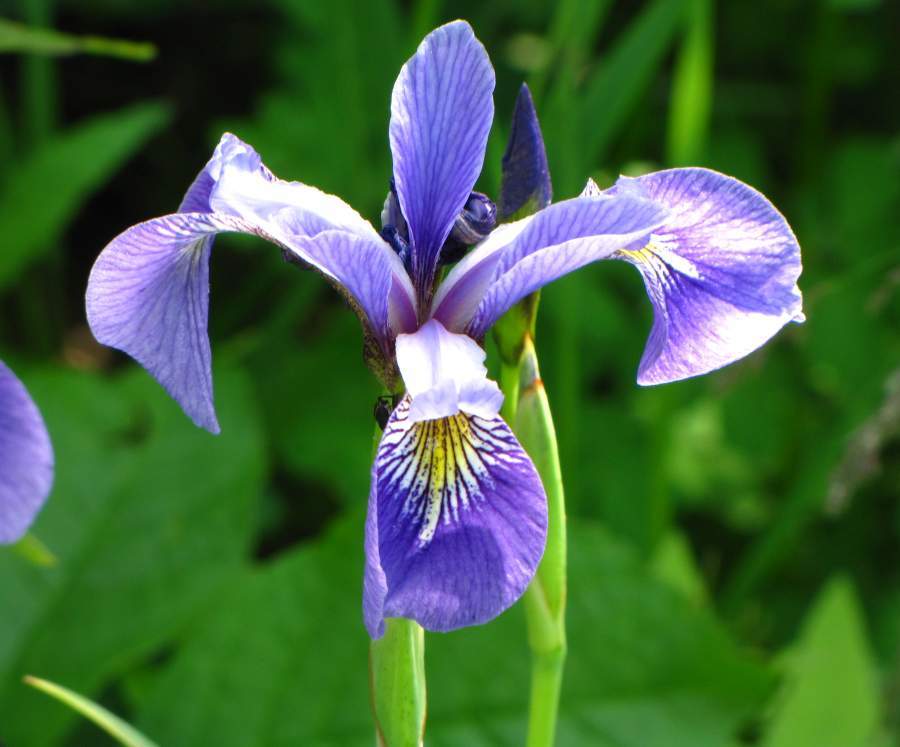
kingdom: Plantae
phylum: Tracheophyta
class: Liliopsida
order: Asparagales
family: Iridaceae
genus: Iris
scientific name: Iris versicolor
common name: Purple iris
